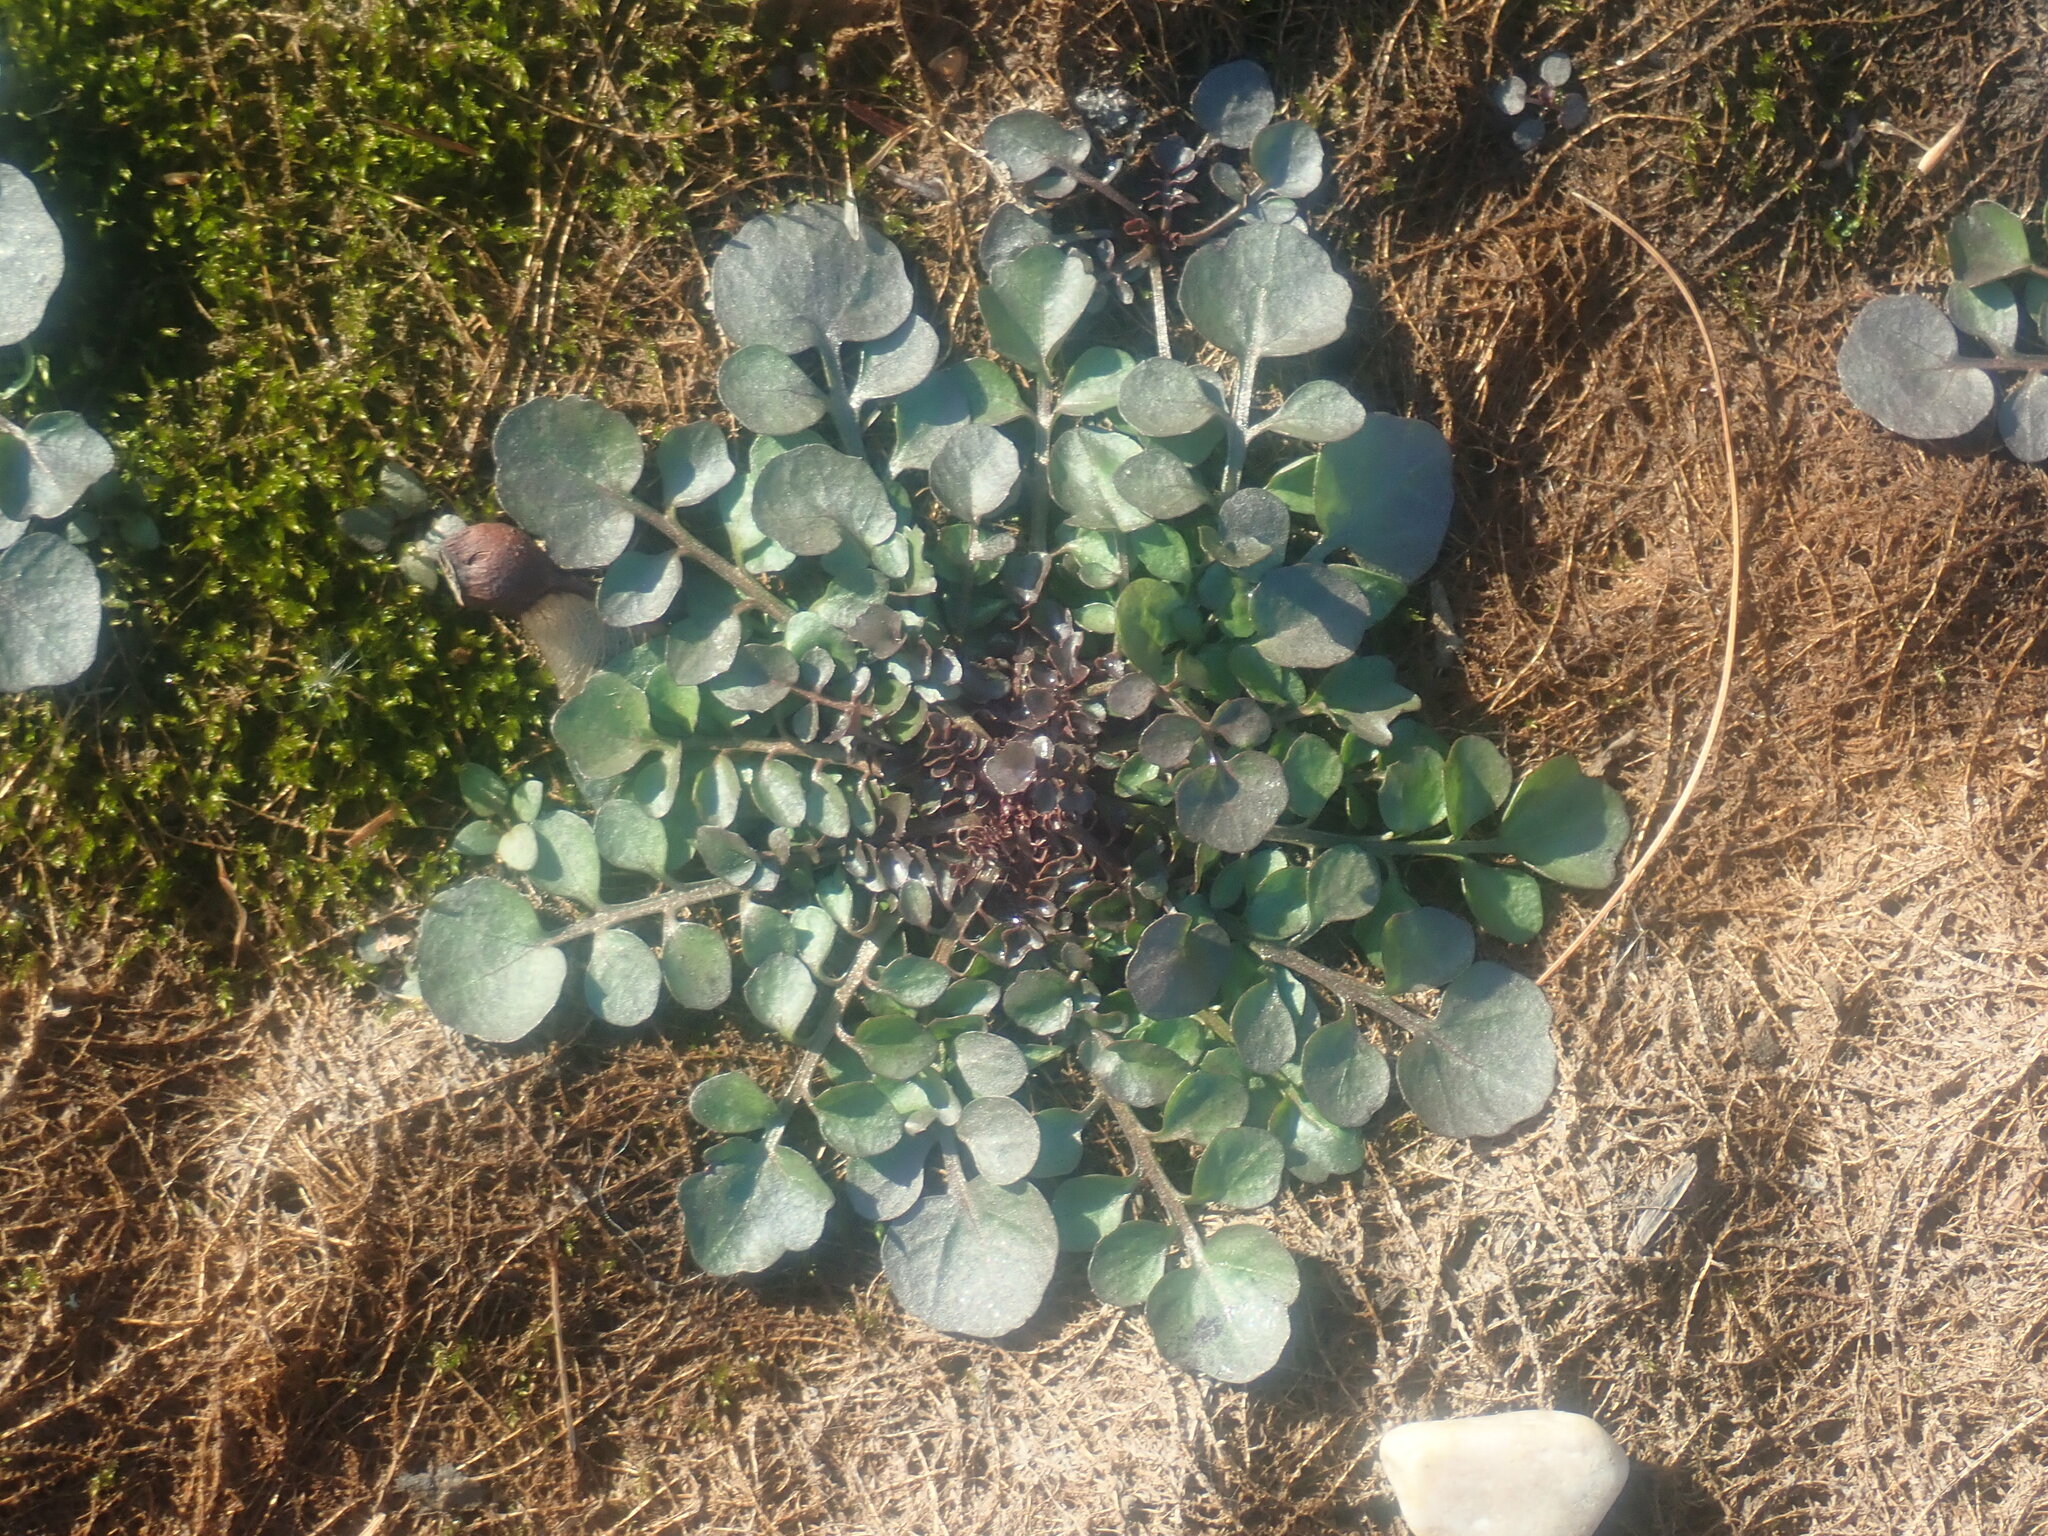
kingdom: Plantae
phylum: Tracheophyta
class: Magnoliopsida
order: Brassicales
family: Brassicaceae
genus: Cardamine
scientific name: Cardamine hirsuta
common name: Hairy bittercress
